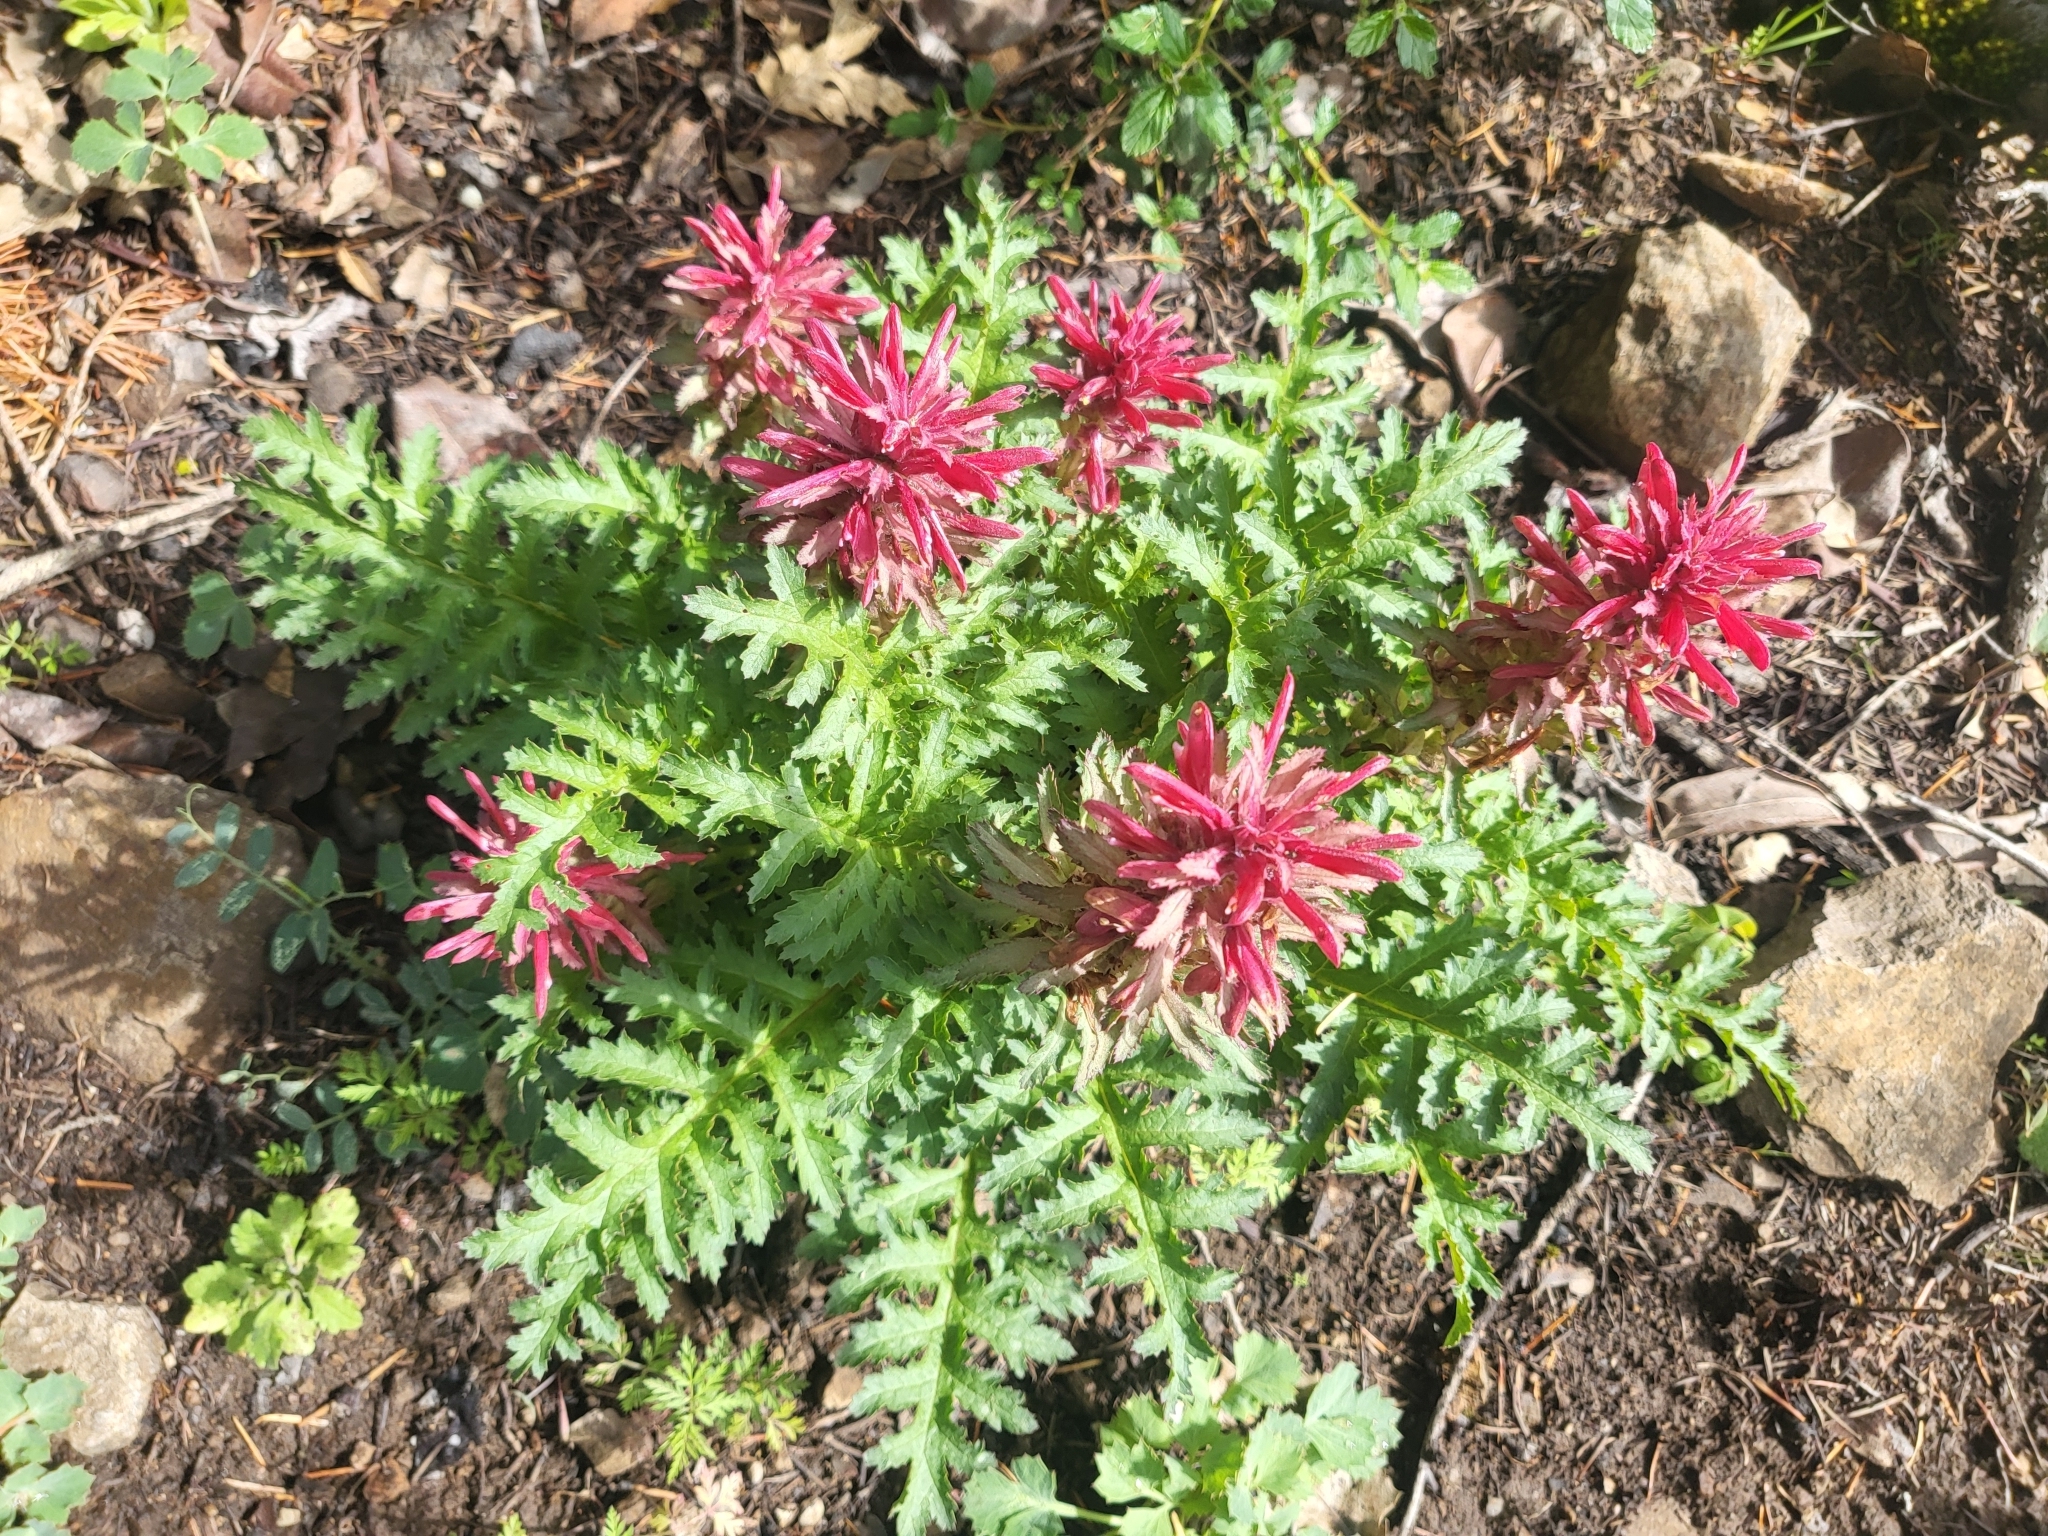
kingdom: Plantae
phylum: Tracheophyta
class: Magnoliopsida
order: Lamiales
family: Orobanchaceae
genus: Pedicularis
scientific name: Pedicularis densiflora
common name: Indian warrior
